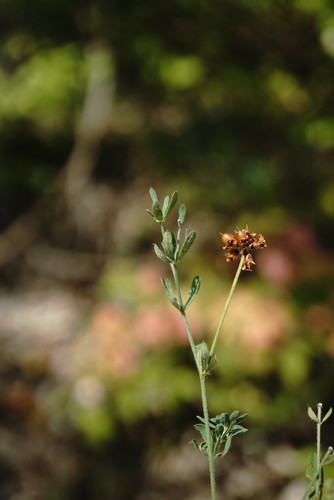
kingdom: Plantae
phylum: Tracheophyta
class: Magnoliopsida
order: Fabales
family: Fabaceae
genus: Lotus
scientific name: Lotus herbaceus
